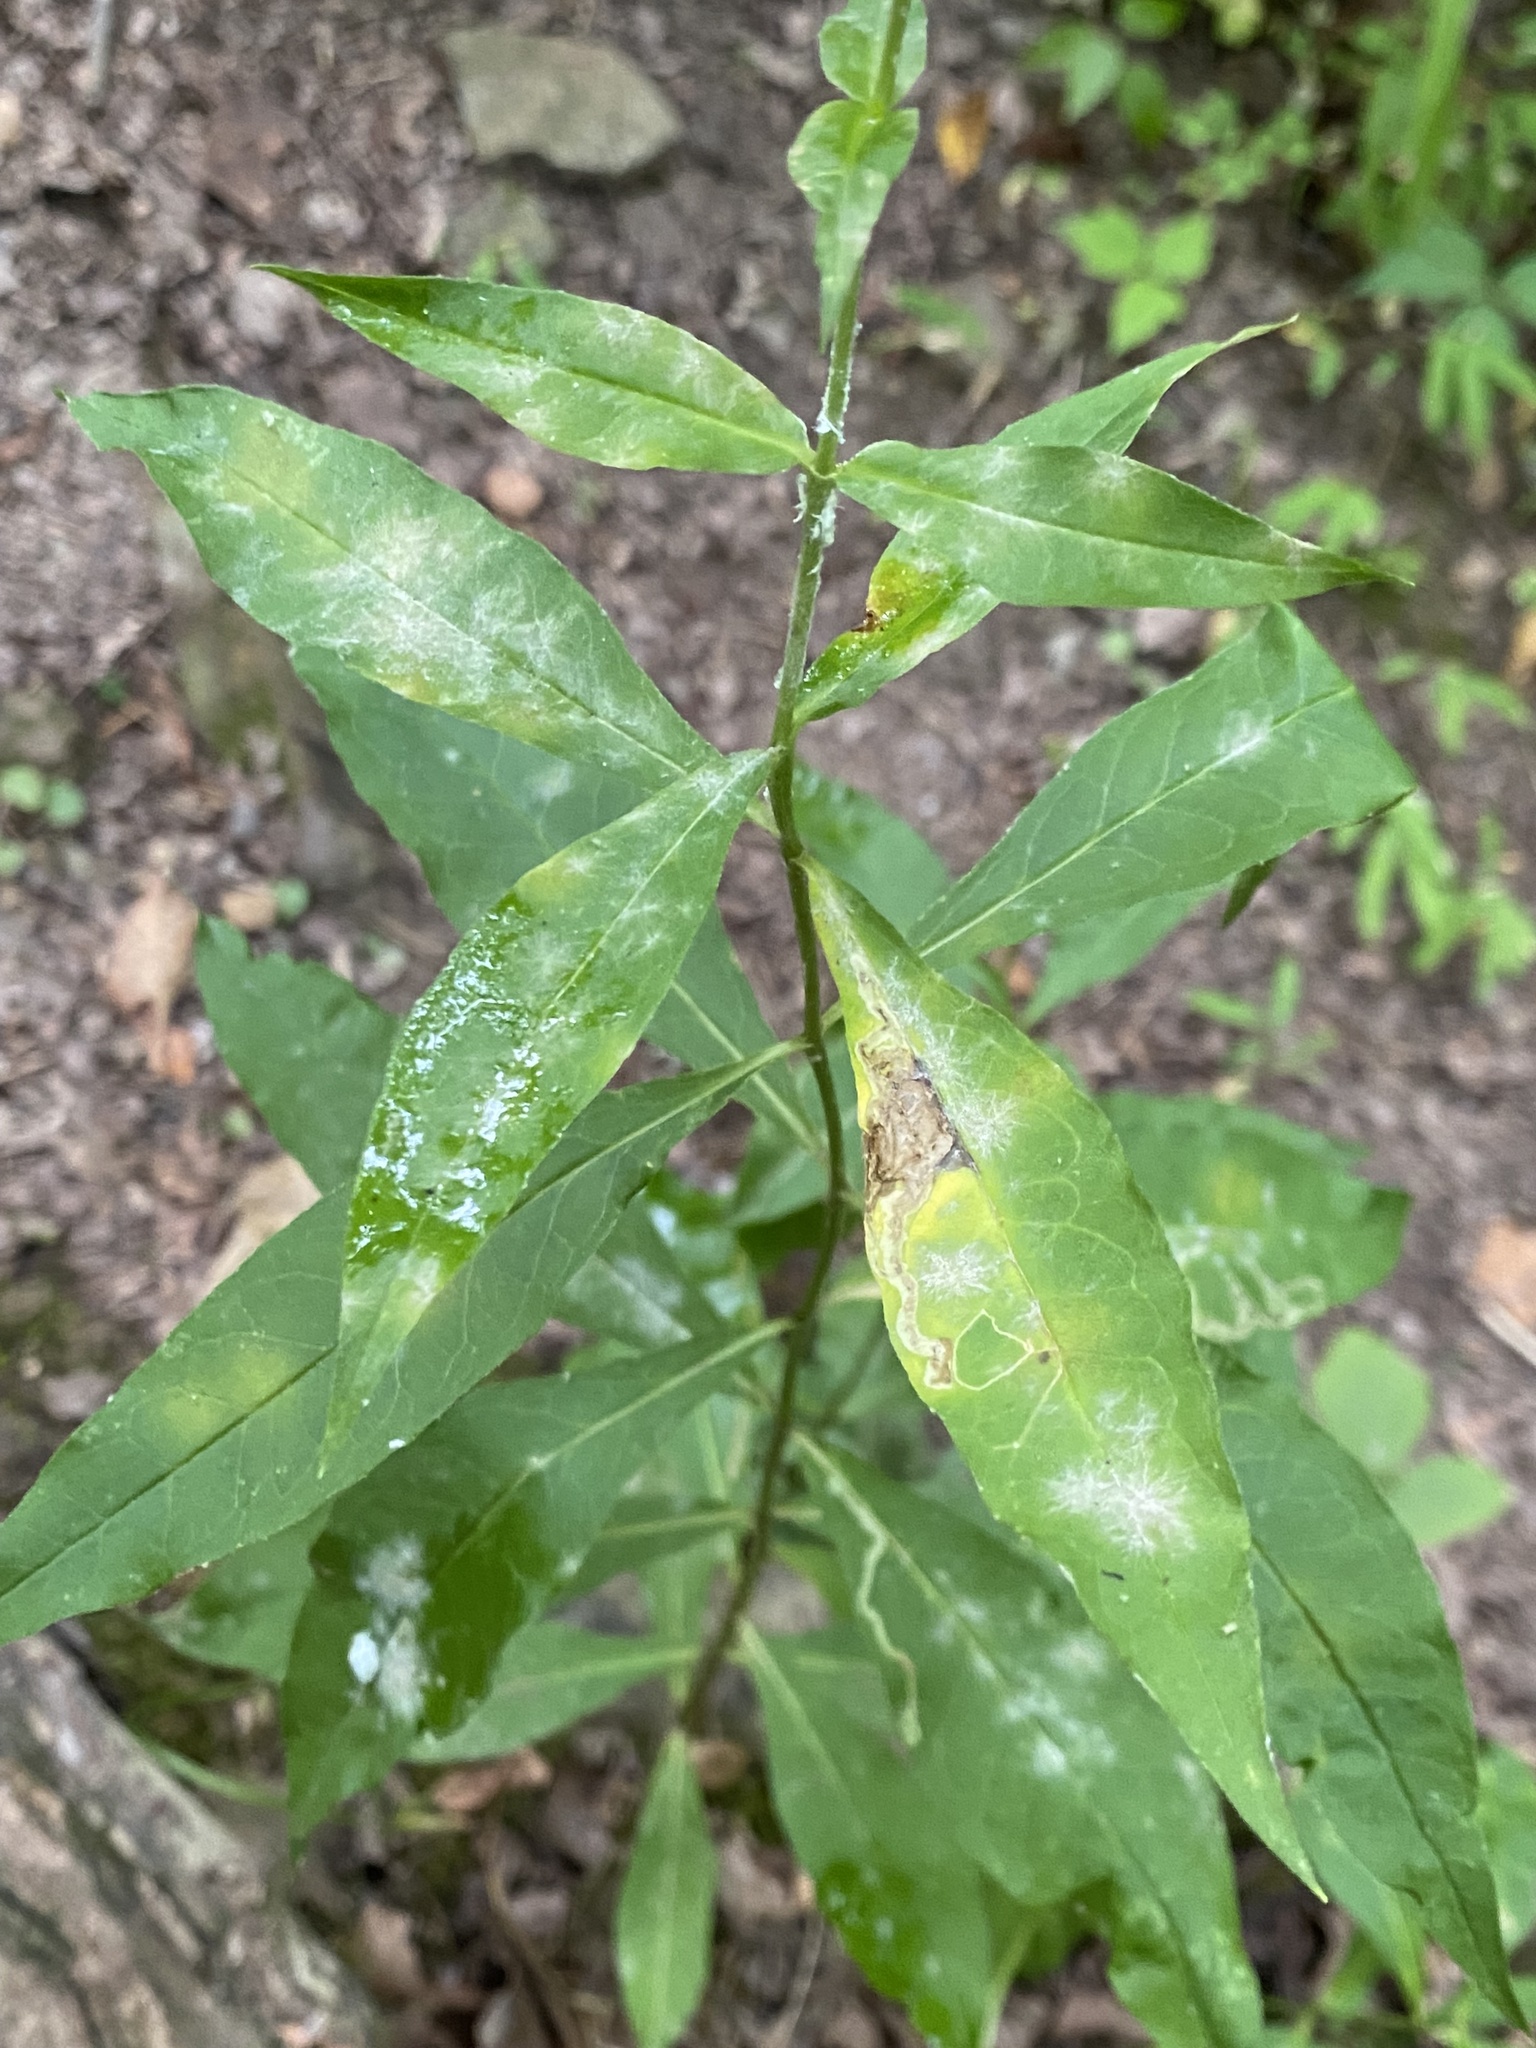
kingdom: Plantae
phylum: Tracheophyta
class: Magnoliopsida
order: Ericales
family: Polemoniaceae
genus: Phlox
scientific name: Phlox paniculata
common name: Fall phlox
